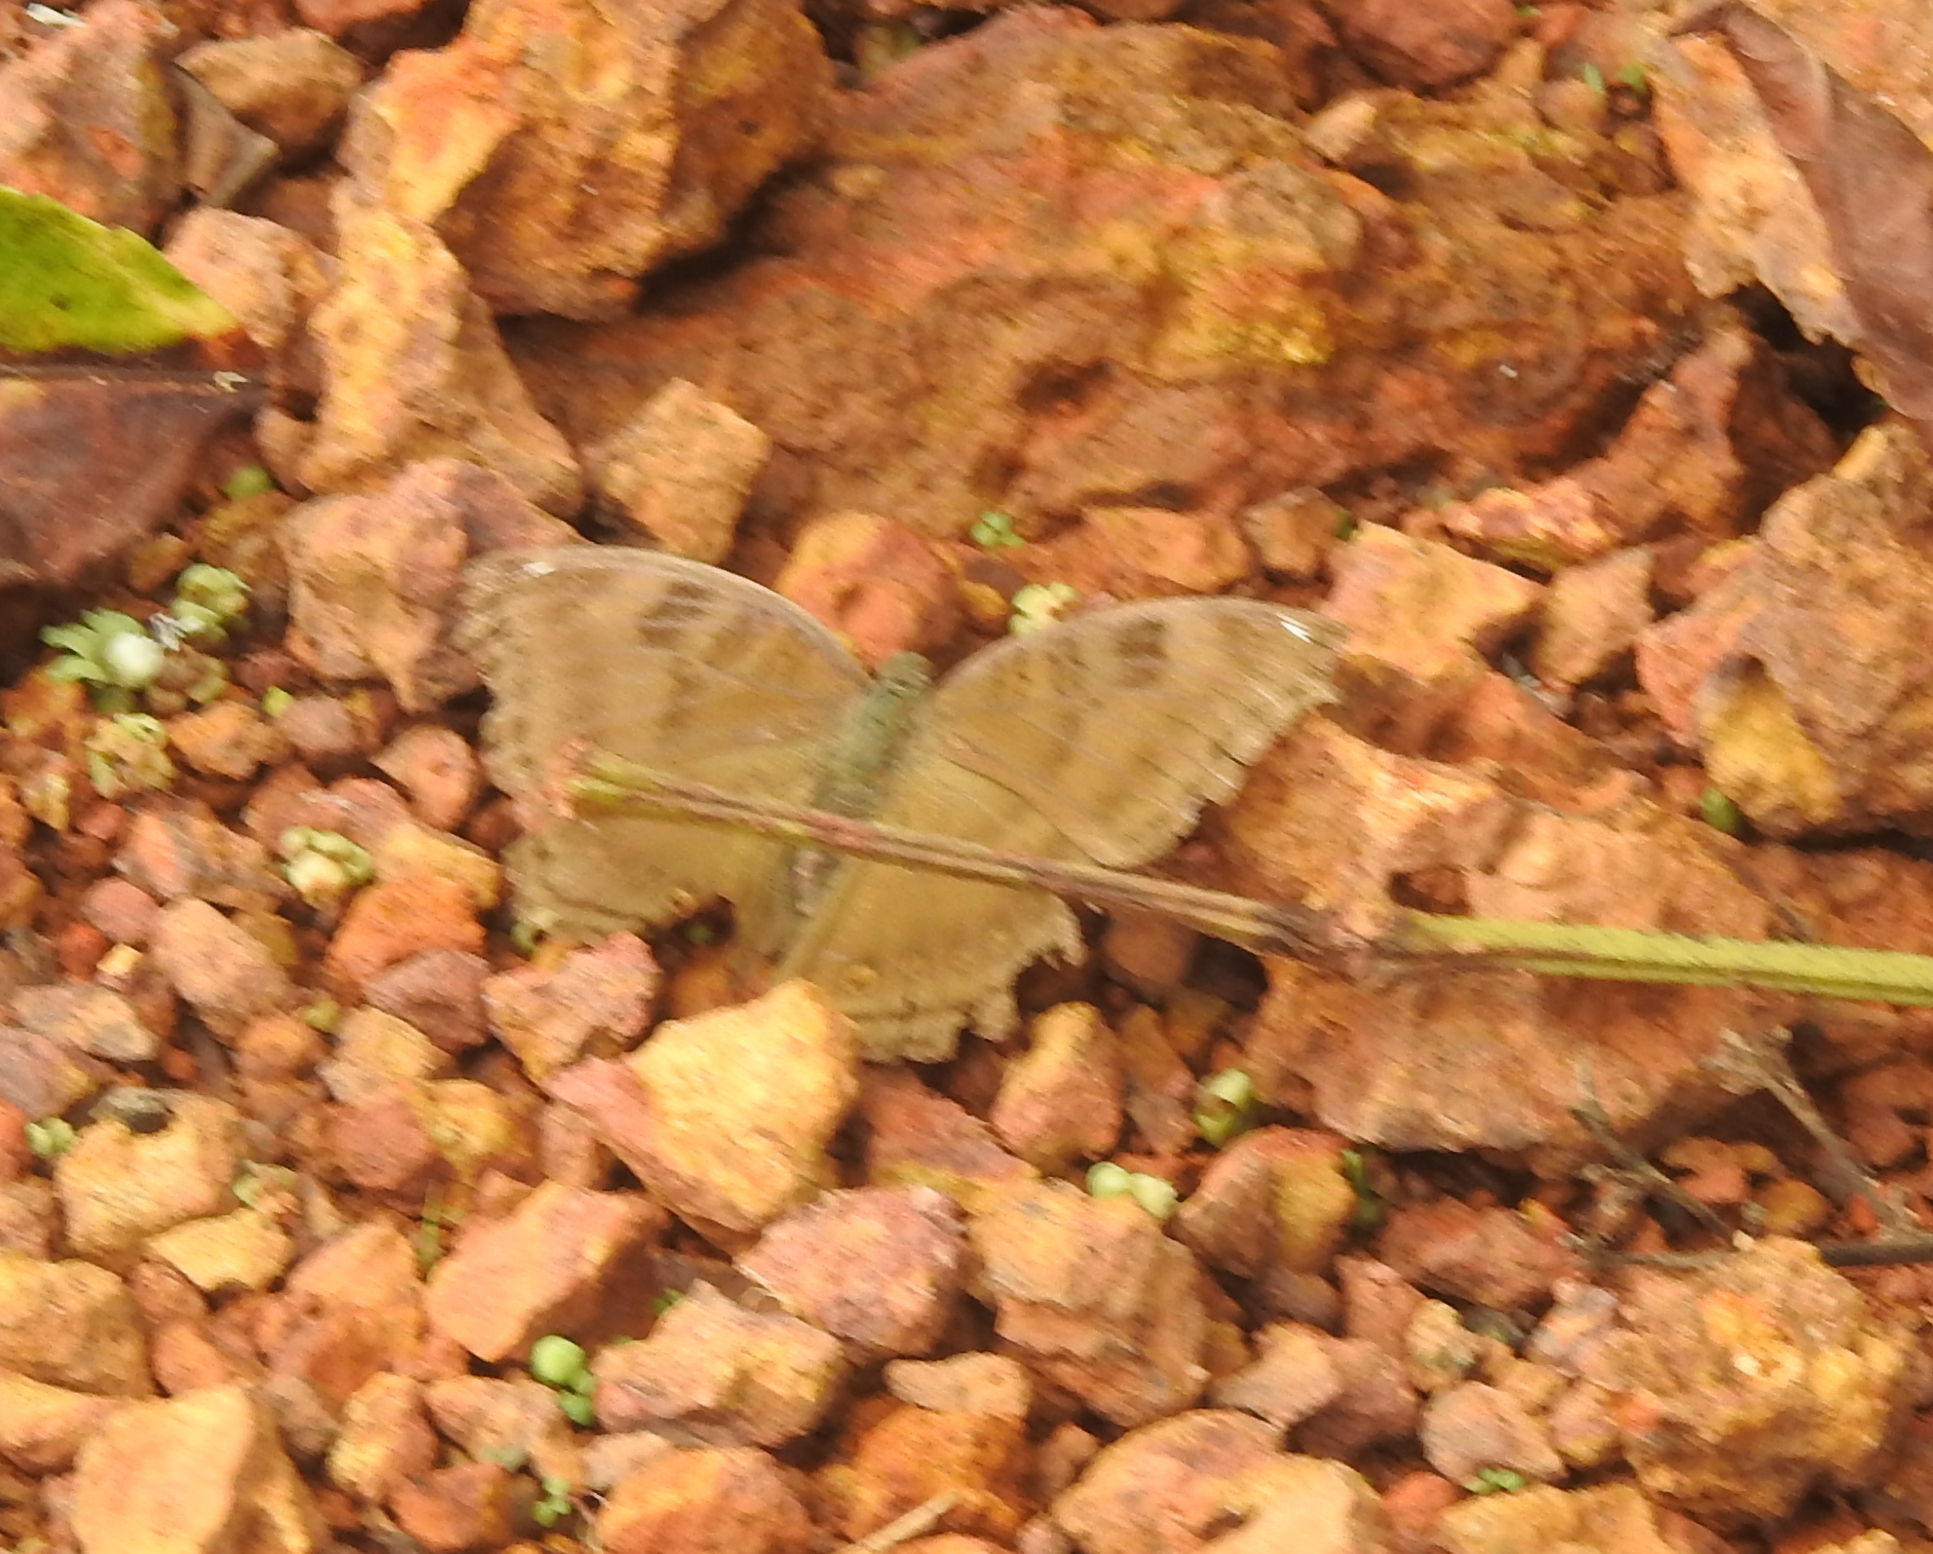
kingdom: Animalia
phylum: Arthropoda
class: Insecta
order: Lepidoptera
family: Nymphalidae
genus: Junonia
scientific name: Junonia iphita
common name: Chocolate pansy
